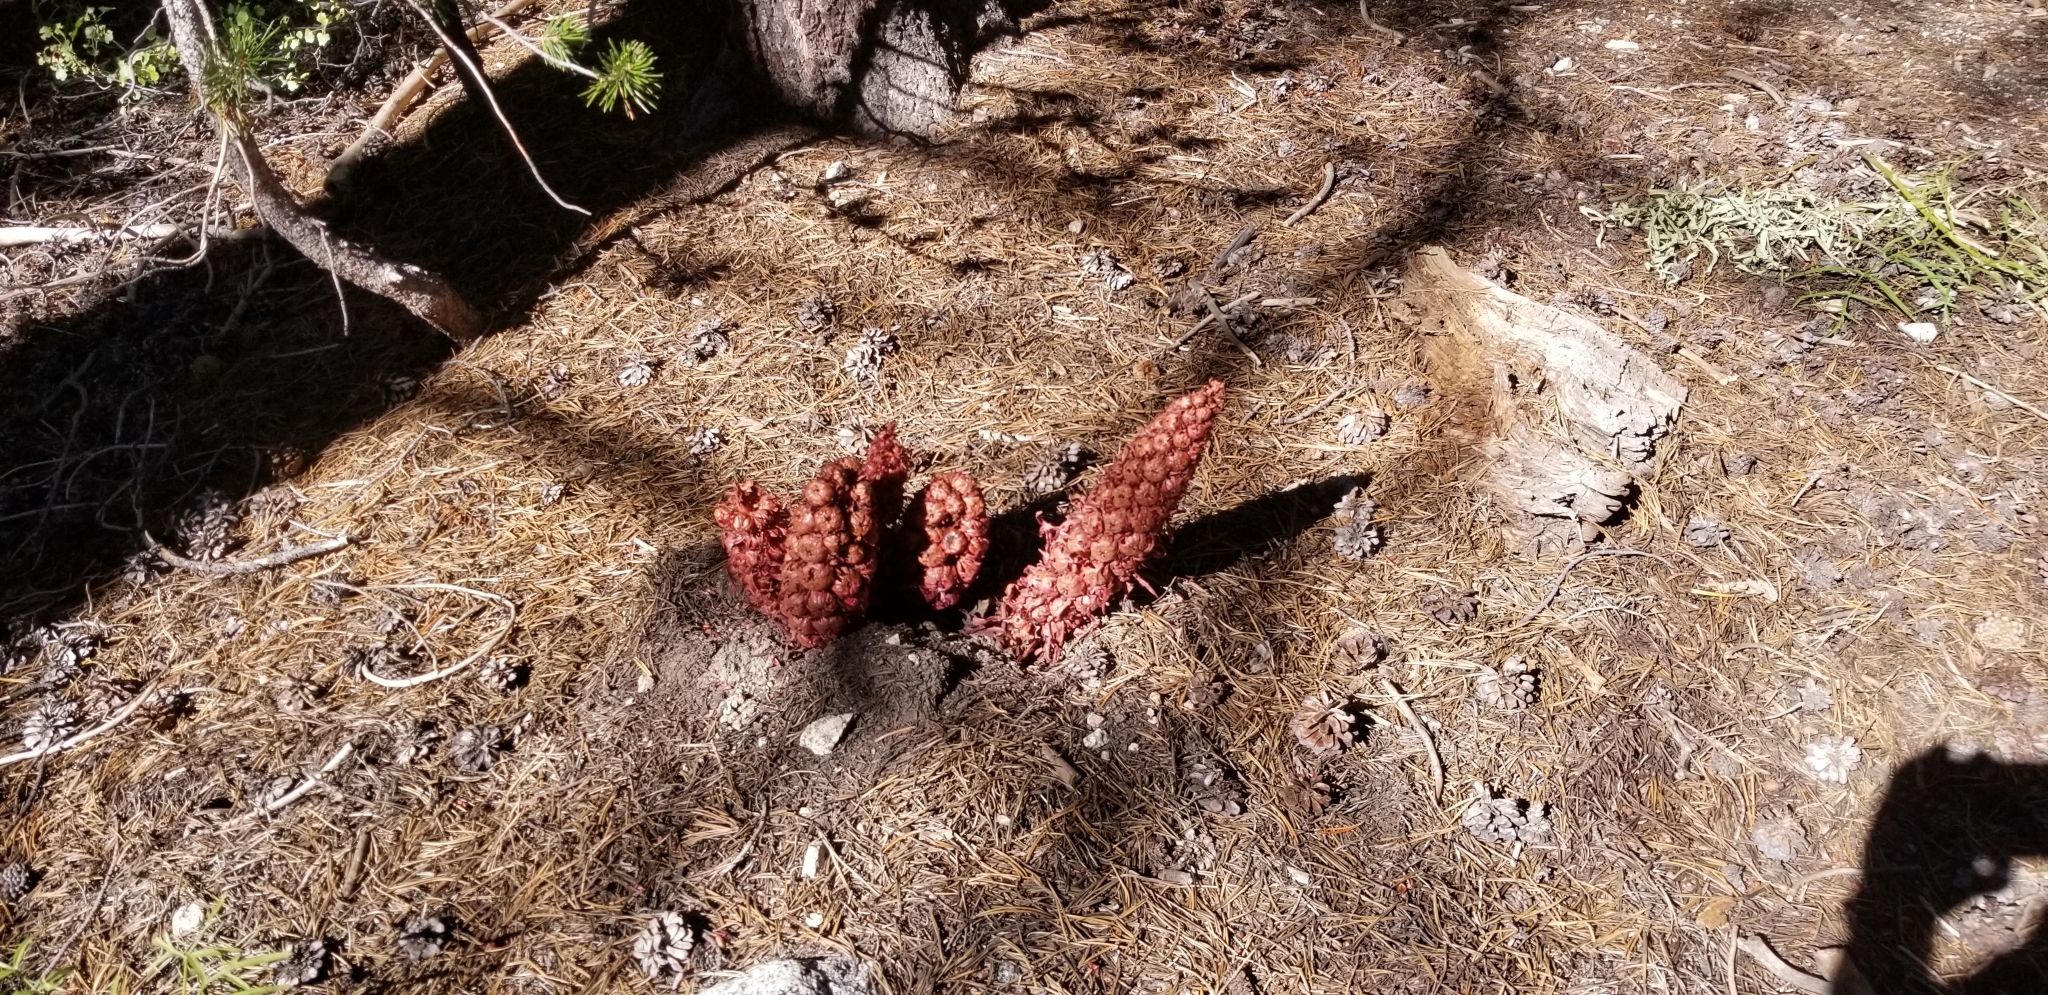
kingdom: Plantae
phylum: Tracheophyta
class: Magnoliopsida
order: Ericales
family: Ericaceae
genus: Sarcodes
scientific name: Sarcodes sanguinea
